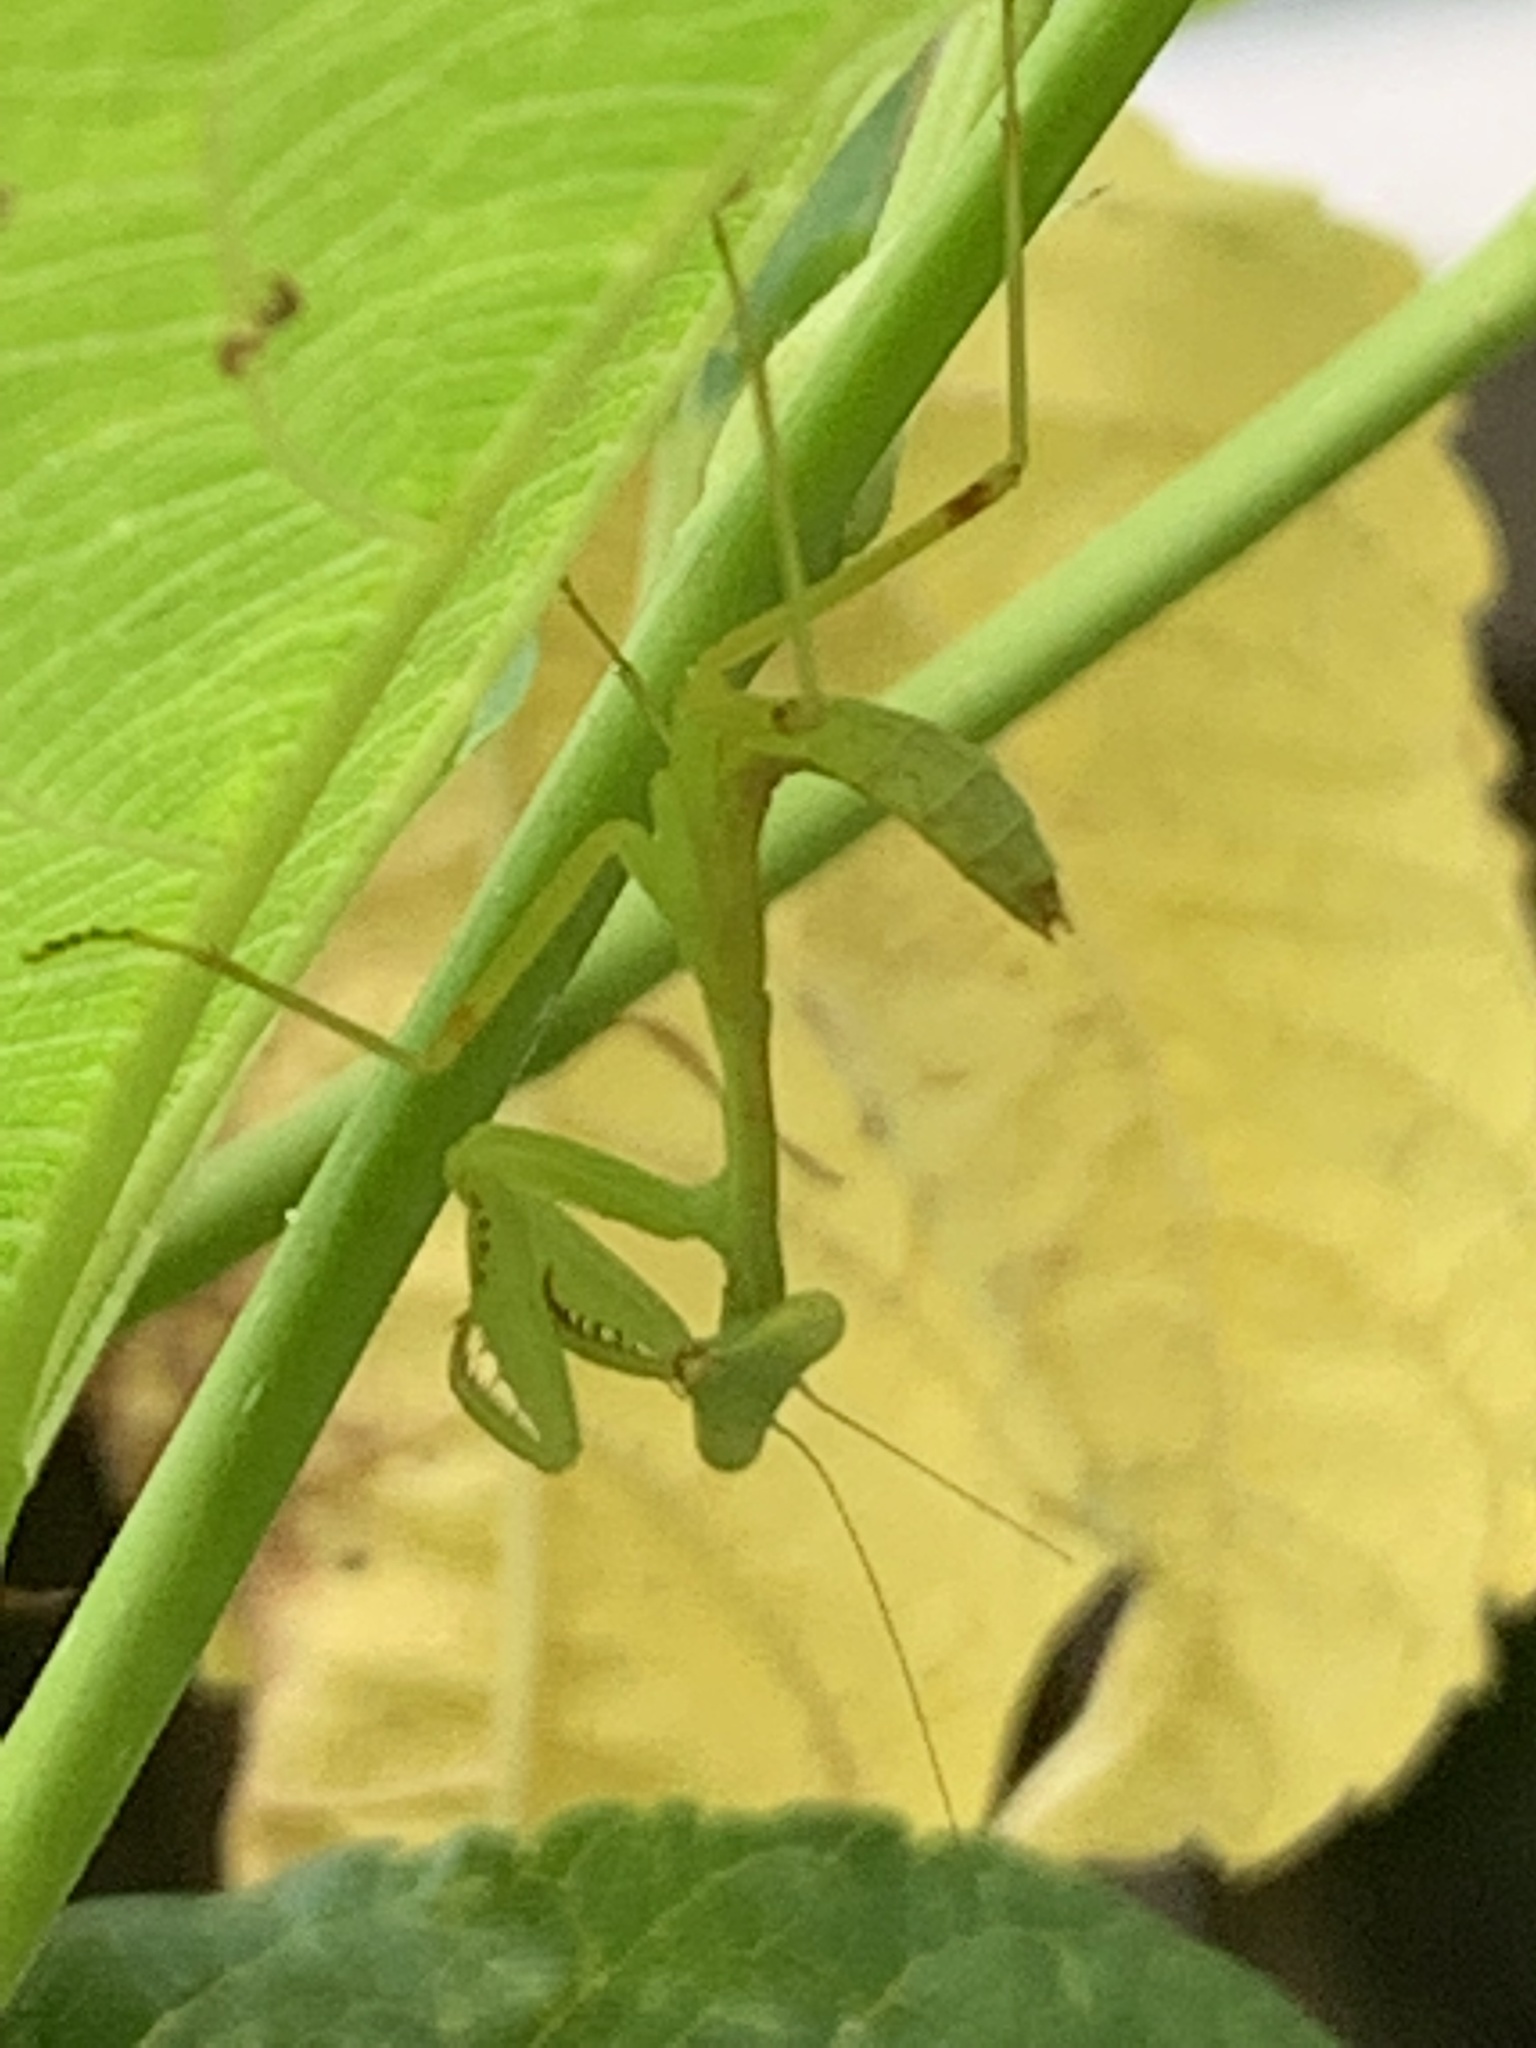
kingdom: Animalia
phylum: Arthropoda
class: Insecta
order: Mantodea
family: Mantidae
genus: Hierodula
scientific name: Hierodula patellifera
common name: Asian mantis
